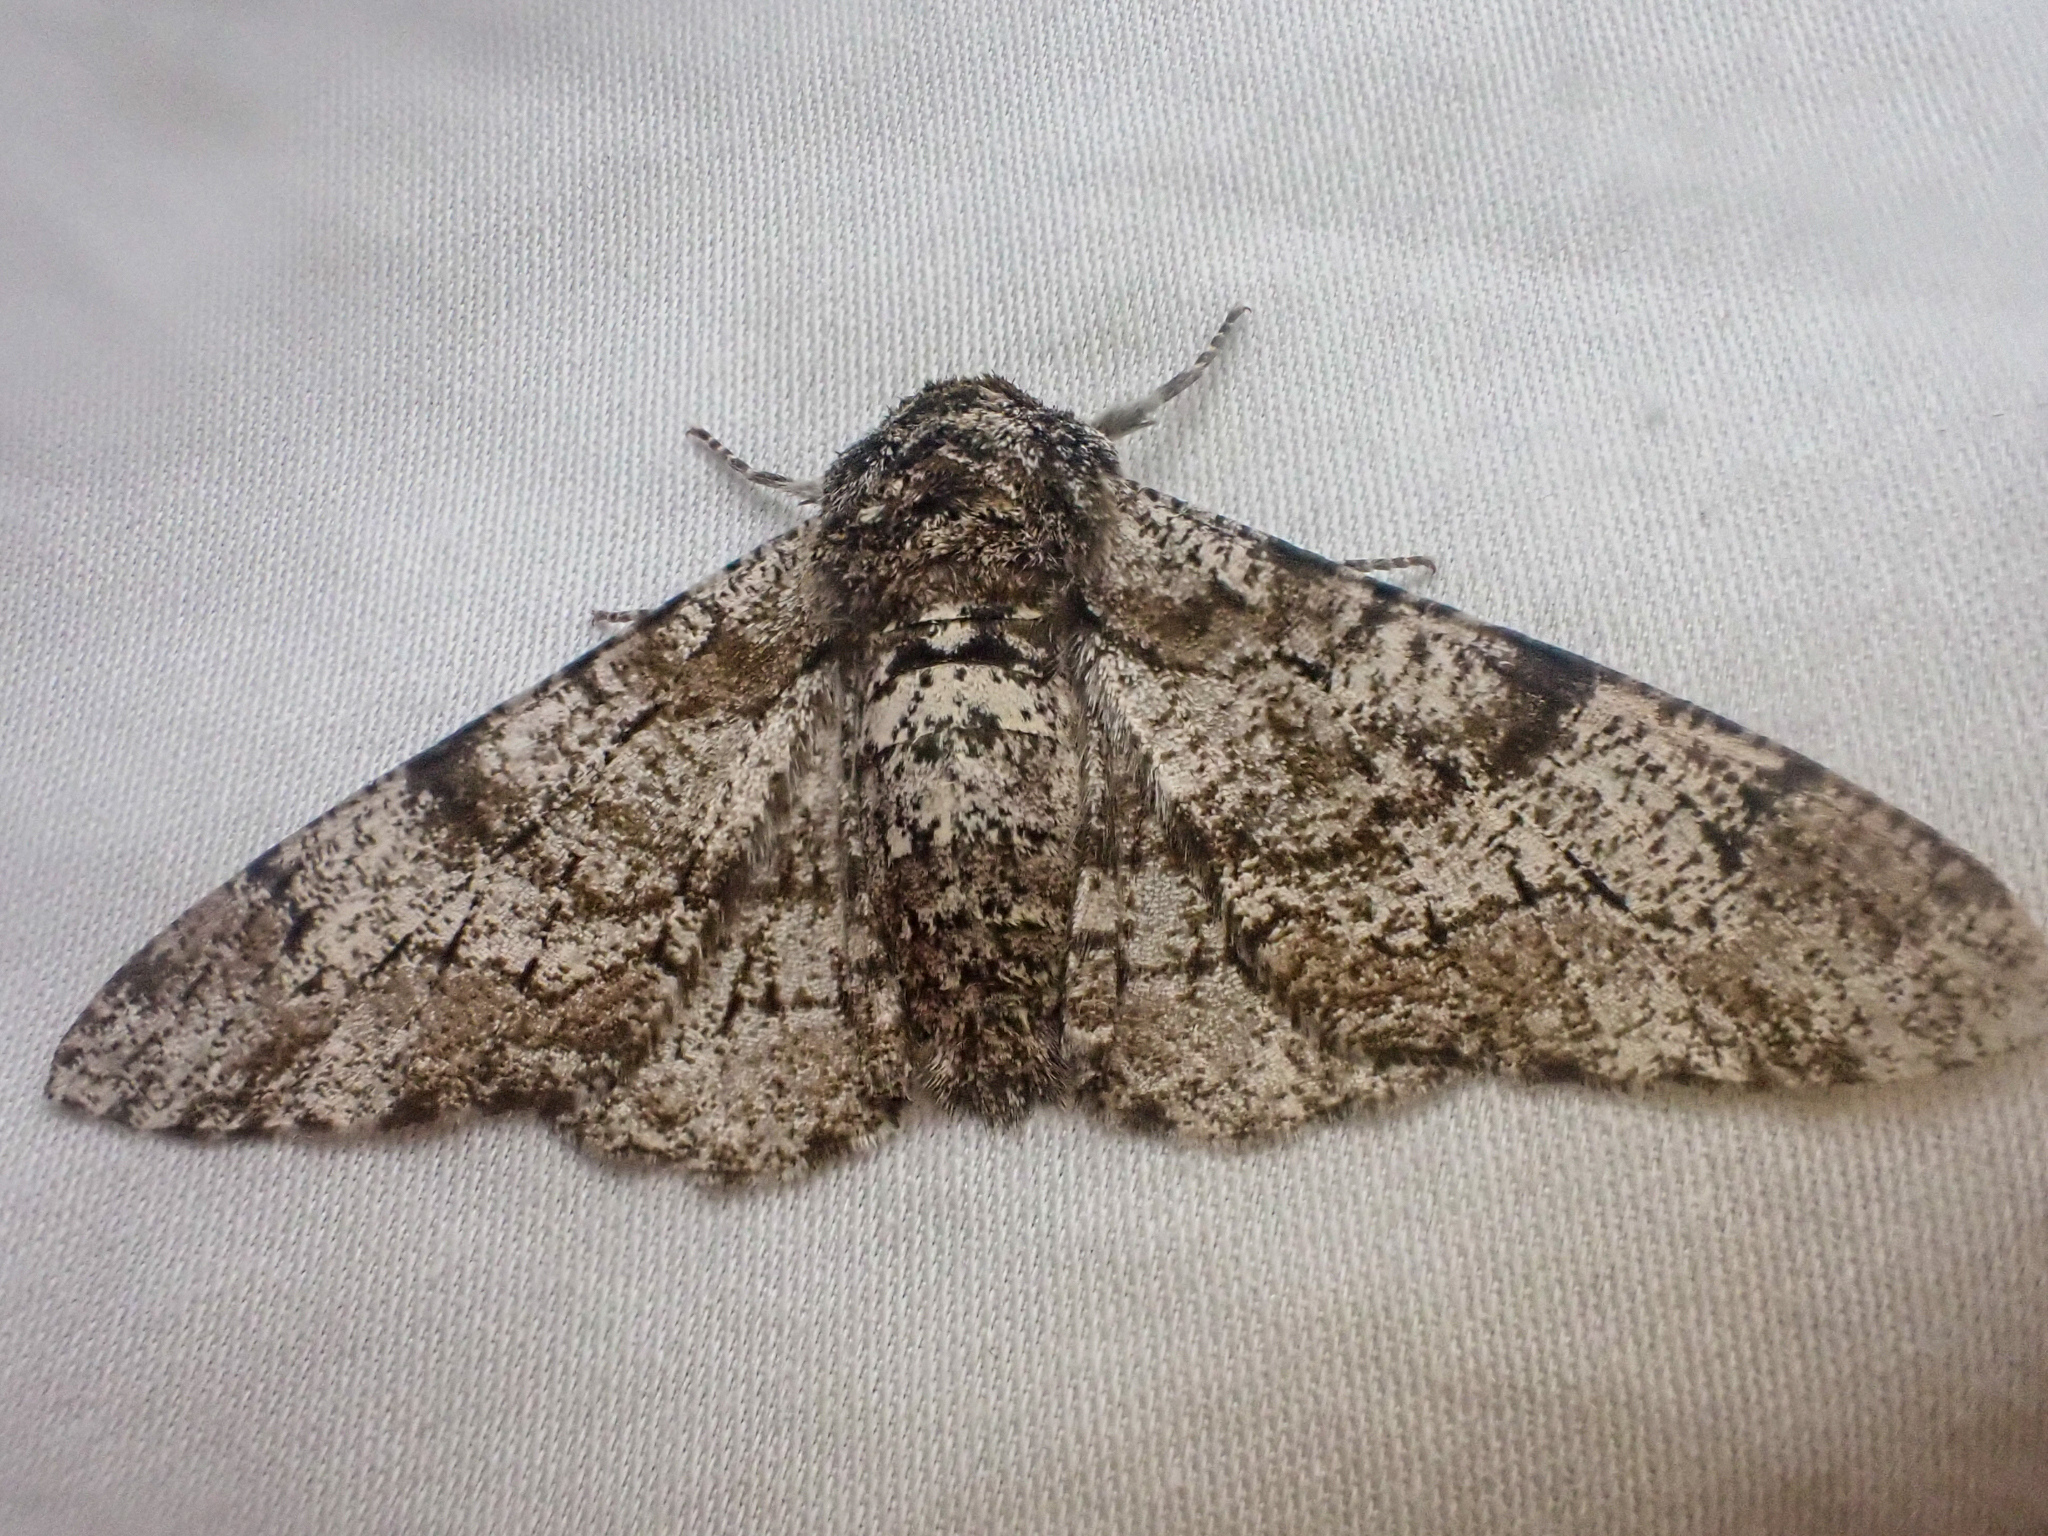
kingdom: Animalia
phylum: Arthropoda
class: Insecta
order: Lepidoptera
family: Geometridae
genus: Biston
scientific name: Biston betularia
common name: Peppered moth
